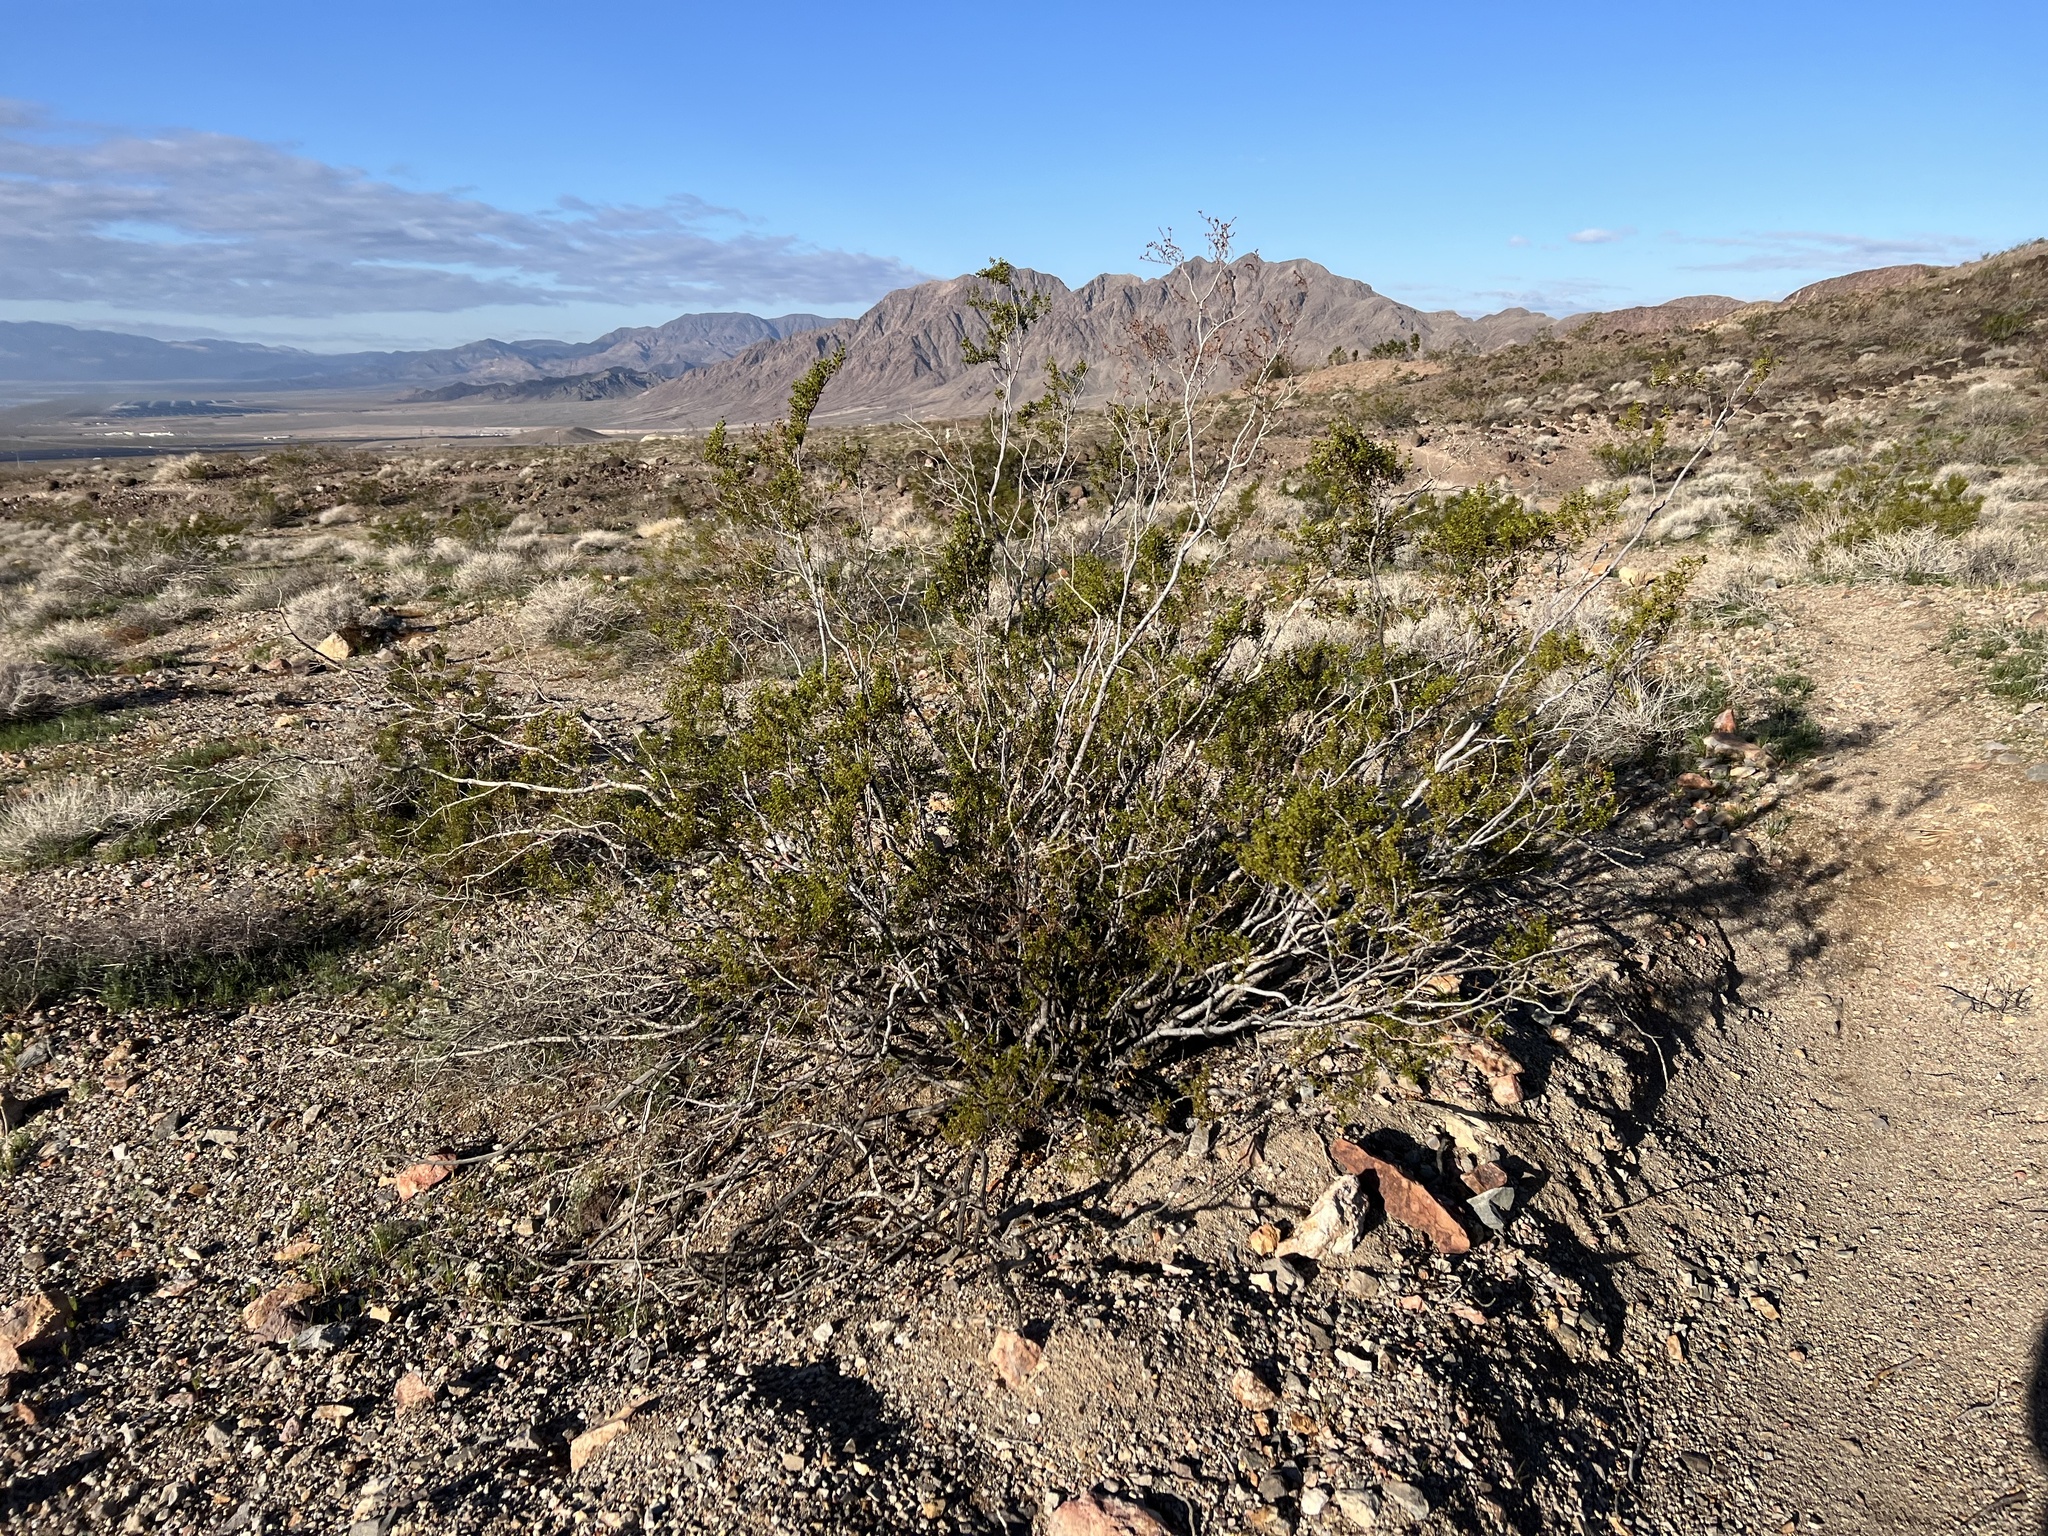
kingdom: Plantae
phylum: Tracheophyta
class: Magnoliopsida
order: Zygophyllales
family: Zygophyllaceae
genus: Larrea
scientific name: Larrea tridentata
